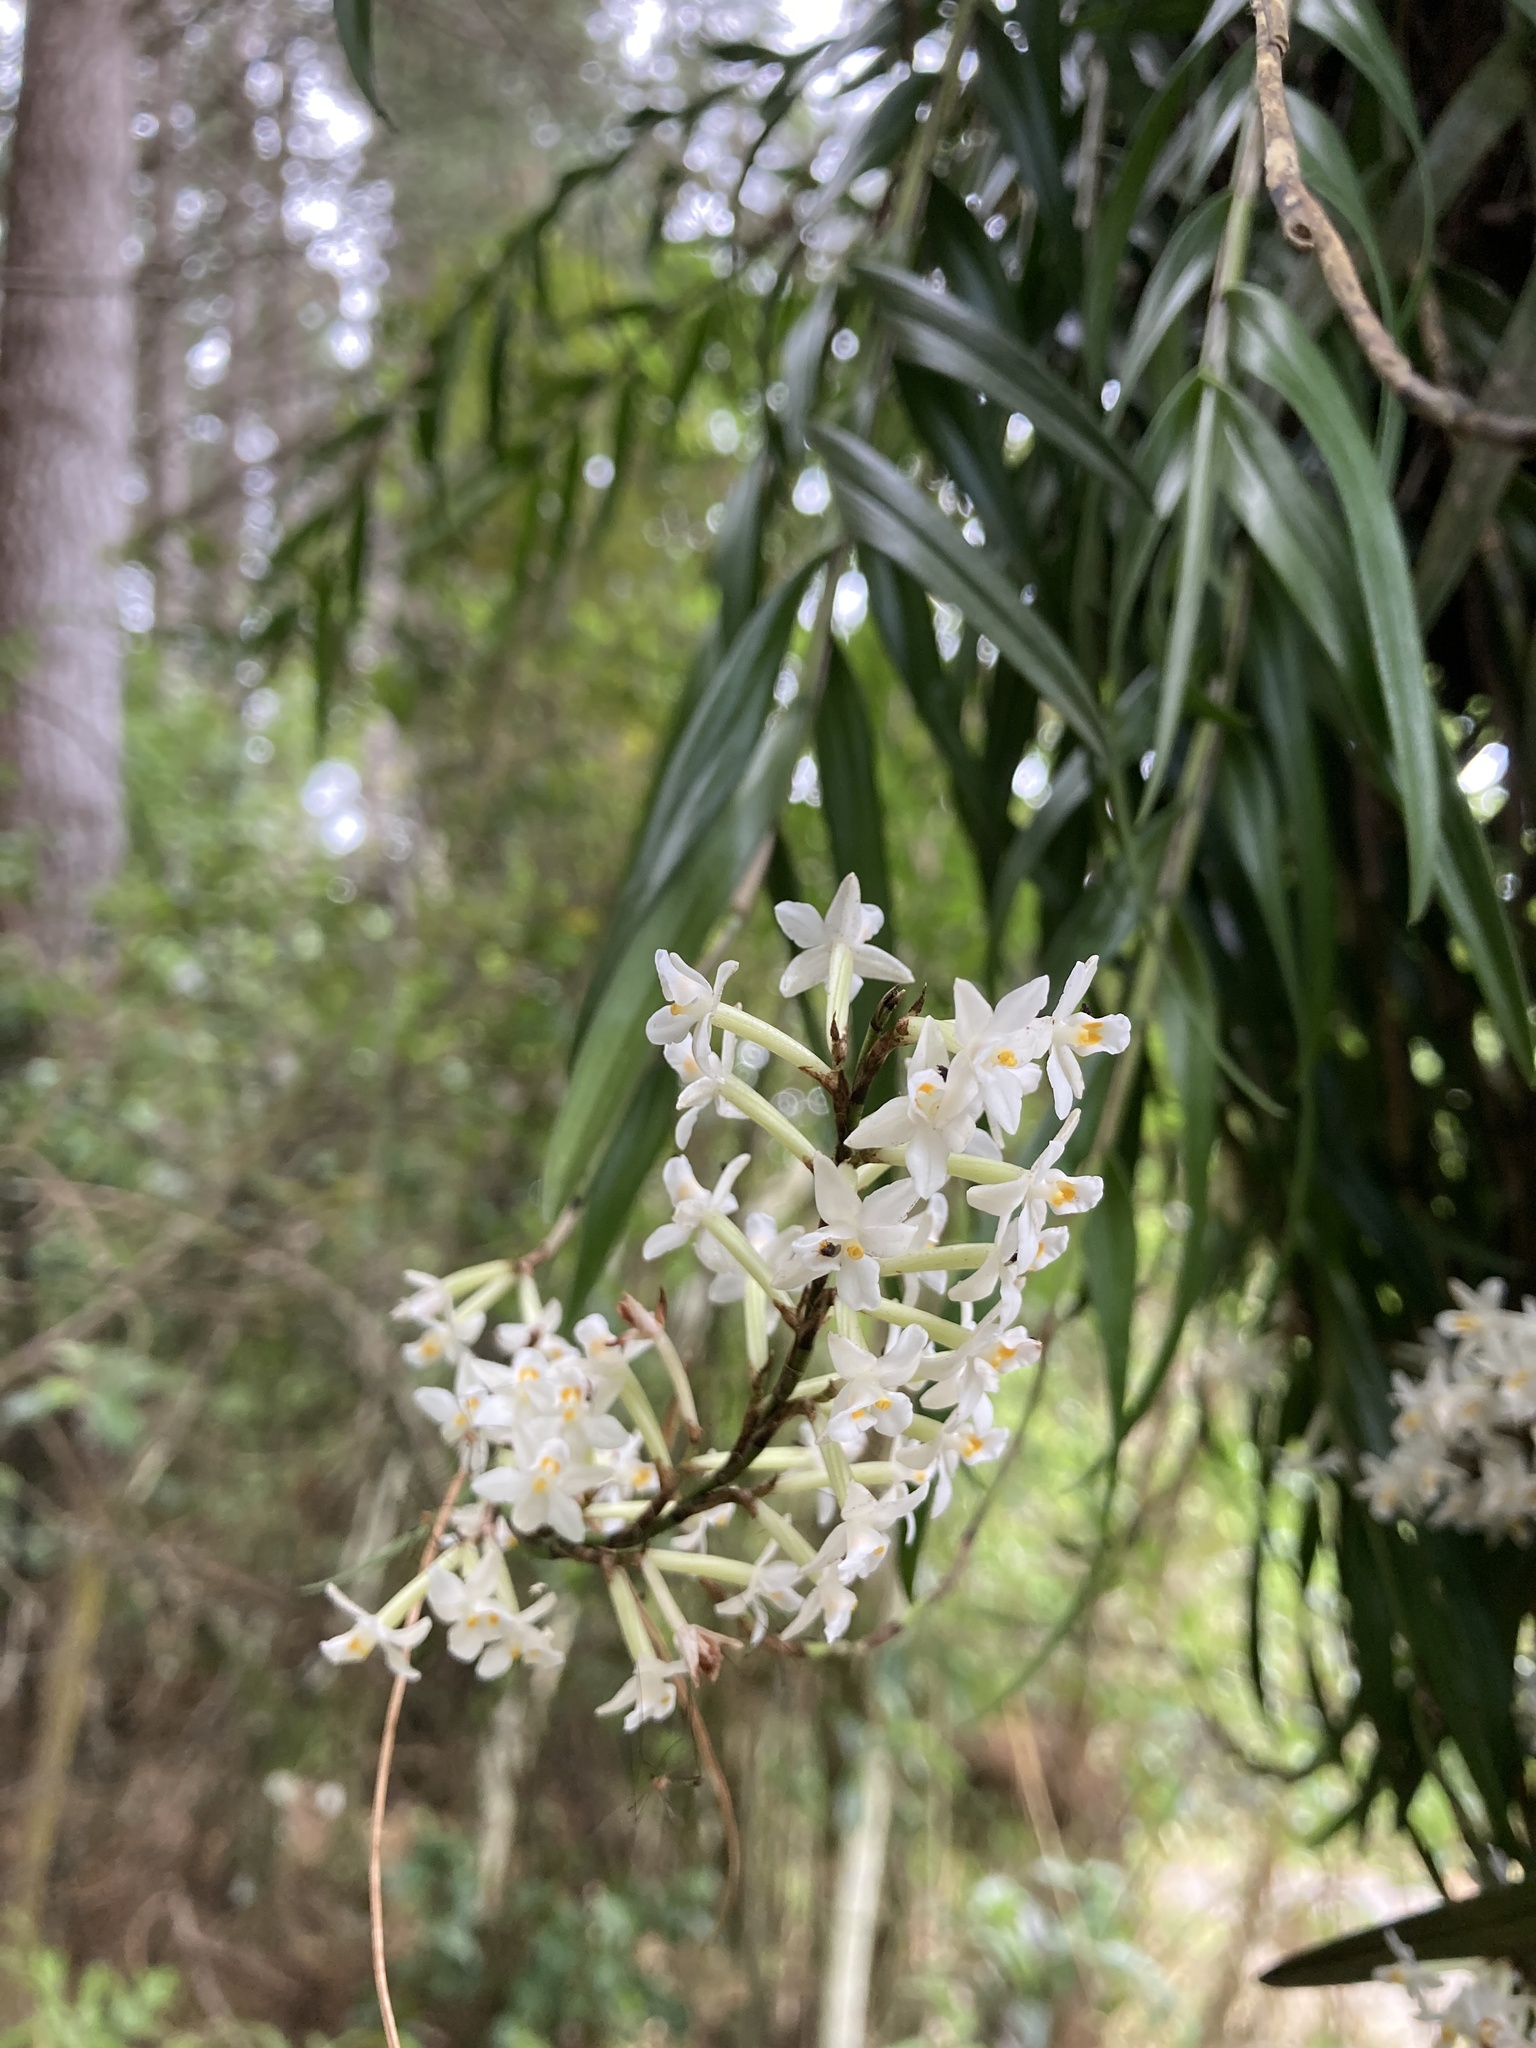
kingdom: Plantae
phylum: Tracheophyta
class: Liliopsida
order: Asparagales
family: Orchidaceae
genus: Earina
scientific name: Earina autumnalis
